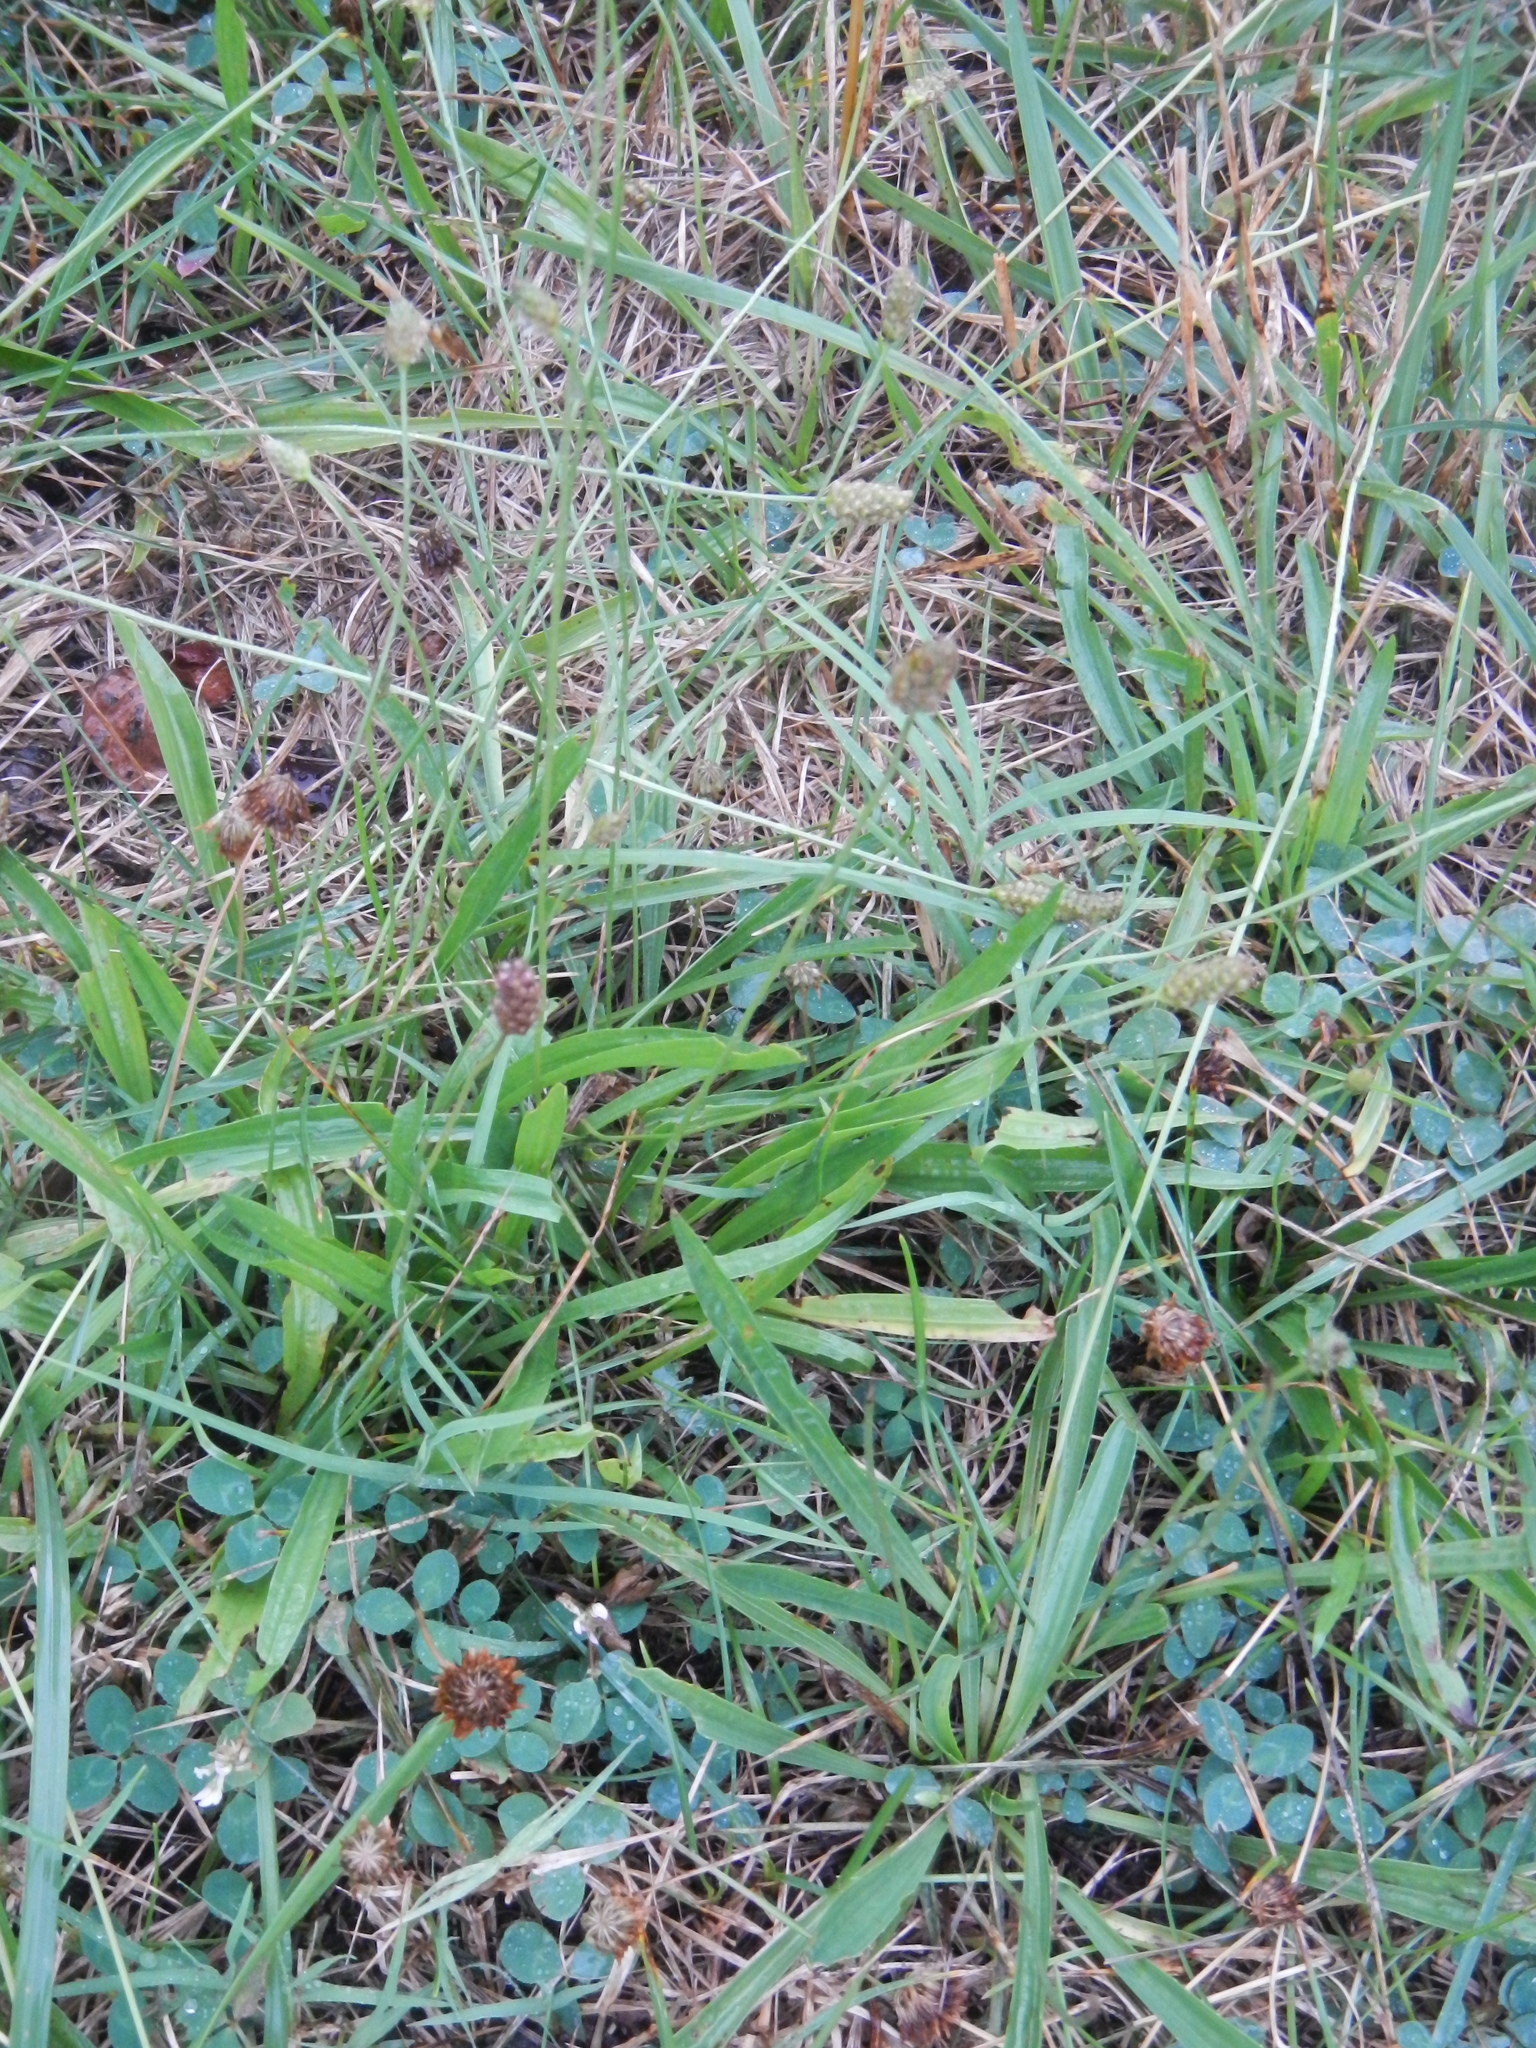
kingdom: Plantae
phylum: Tracheophyta
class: Magnoliopsida
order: Lamiales
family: Plantaginaceae
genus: Plantago
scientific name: Plantago lanceolata
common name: Ribwort plantain
